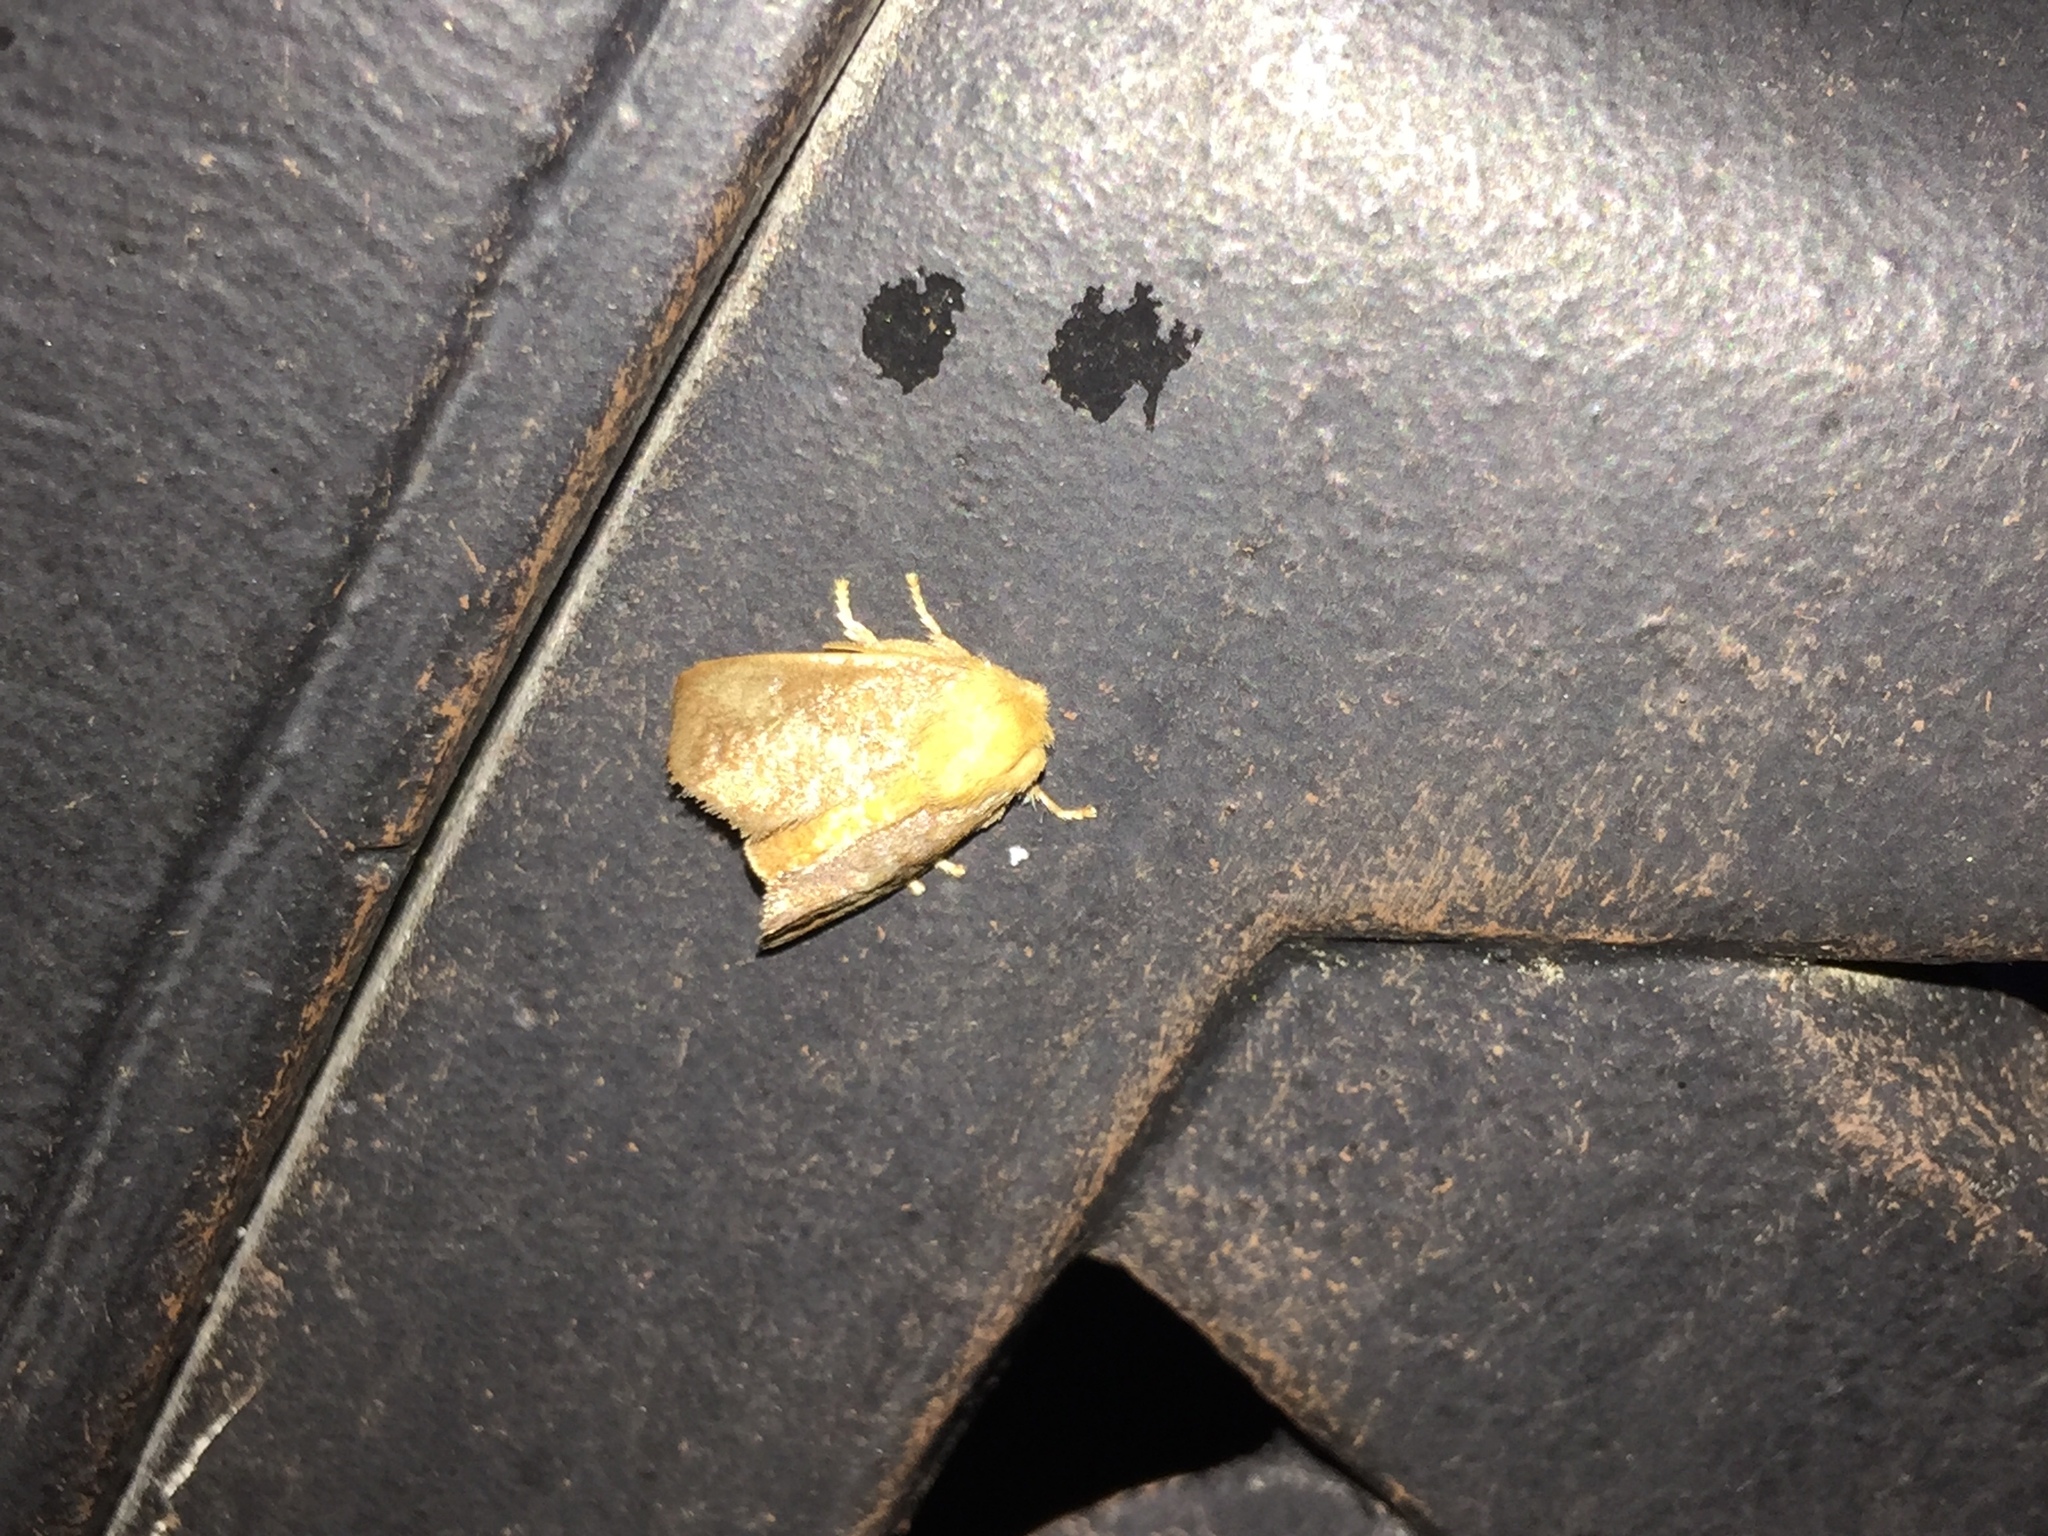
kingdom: Animalia
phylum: Arthropoda
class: Insecta
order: Lepidoptera
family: Limacodidae
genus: Isa
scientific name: Isa textula
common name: Crowned slug moth
